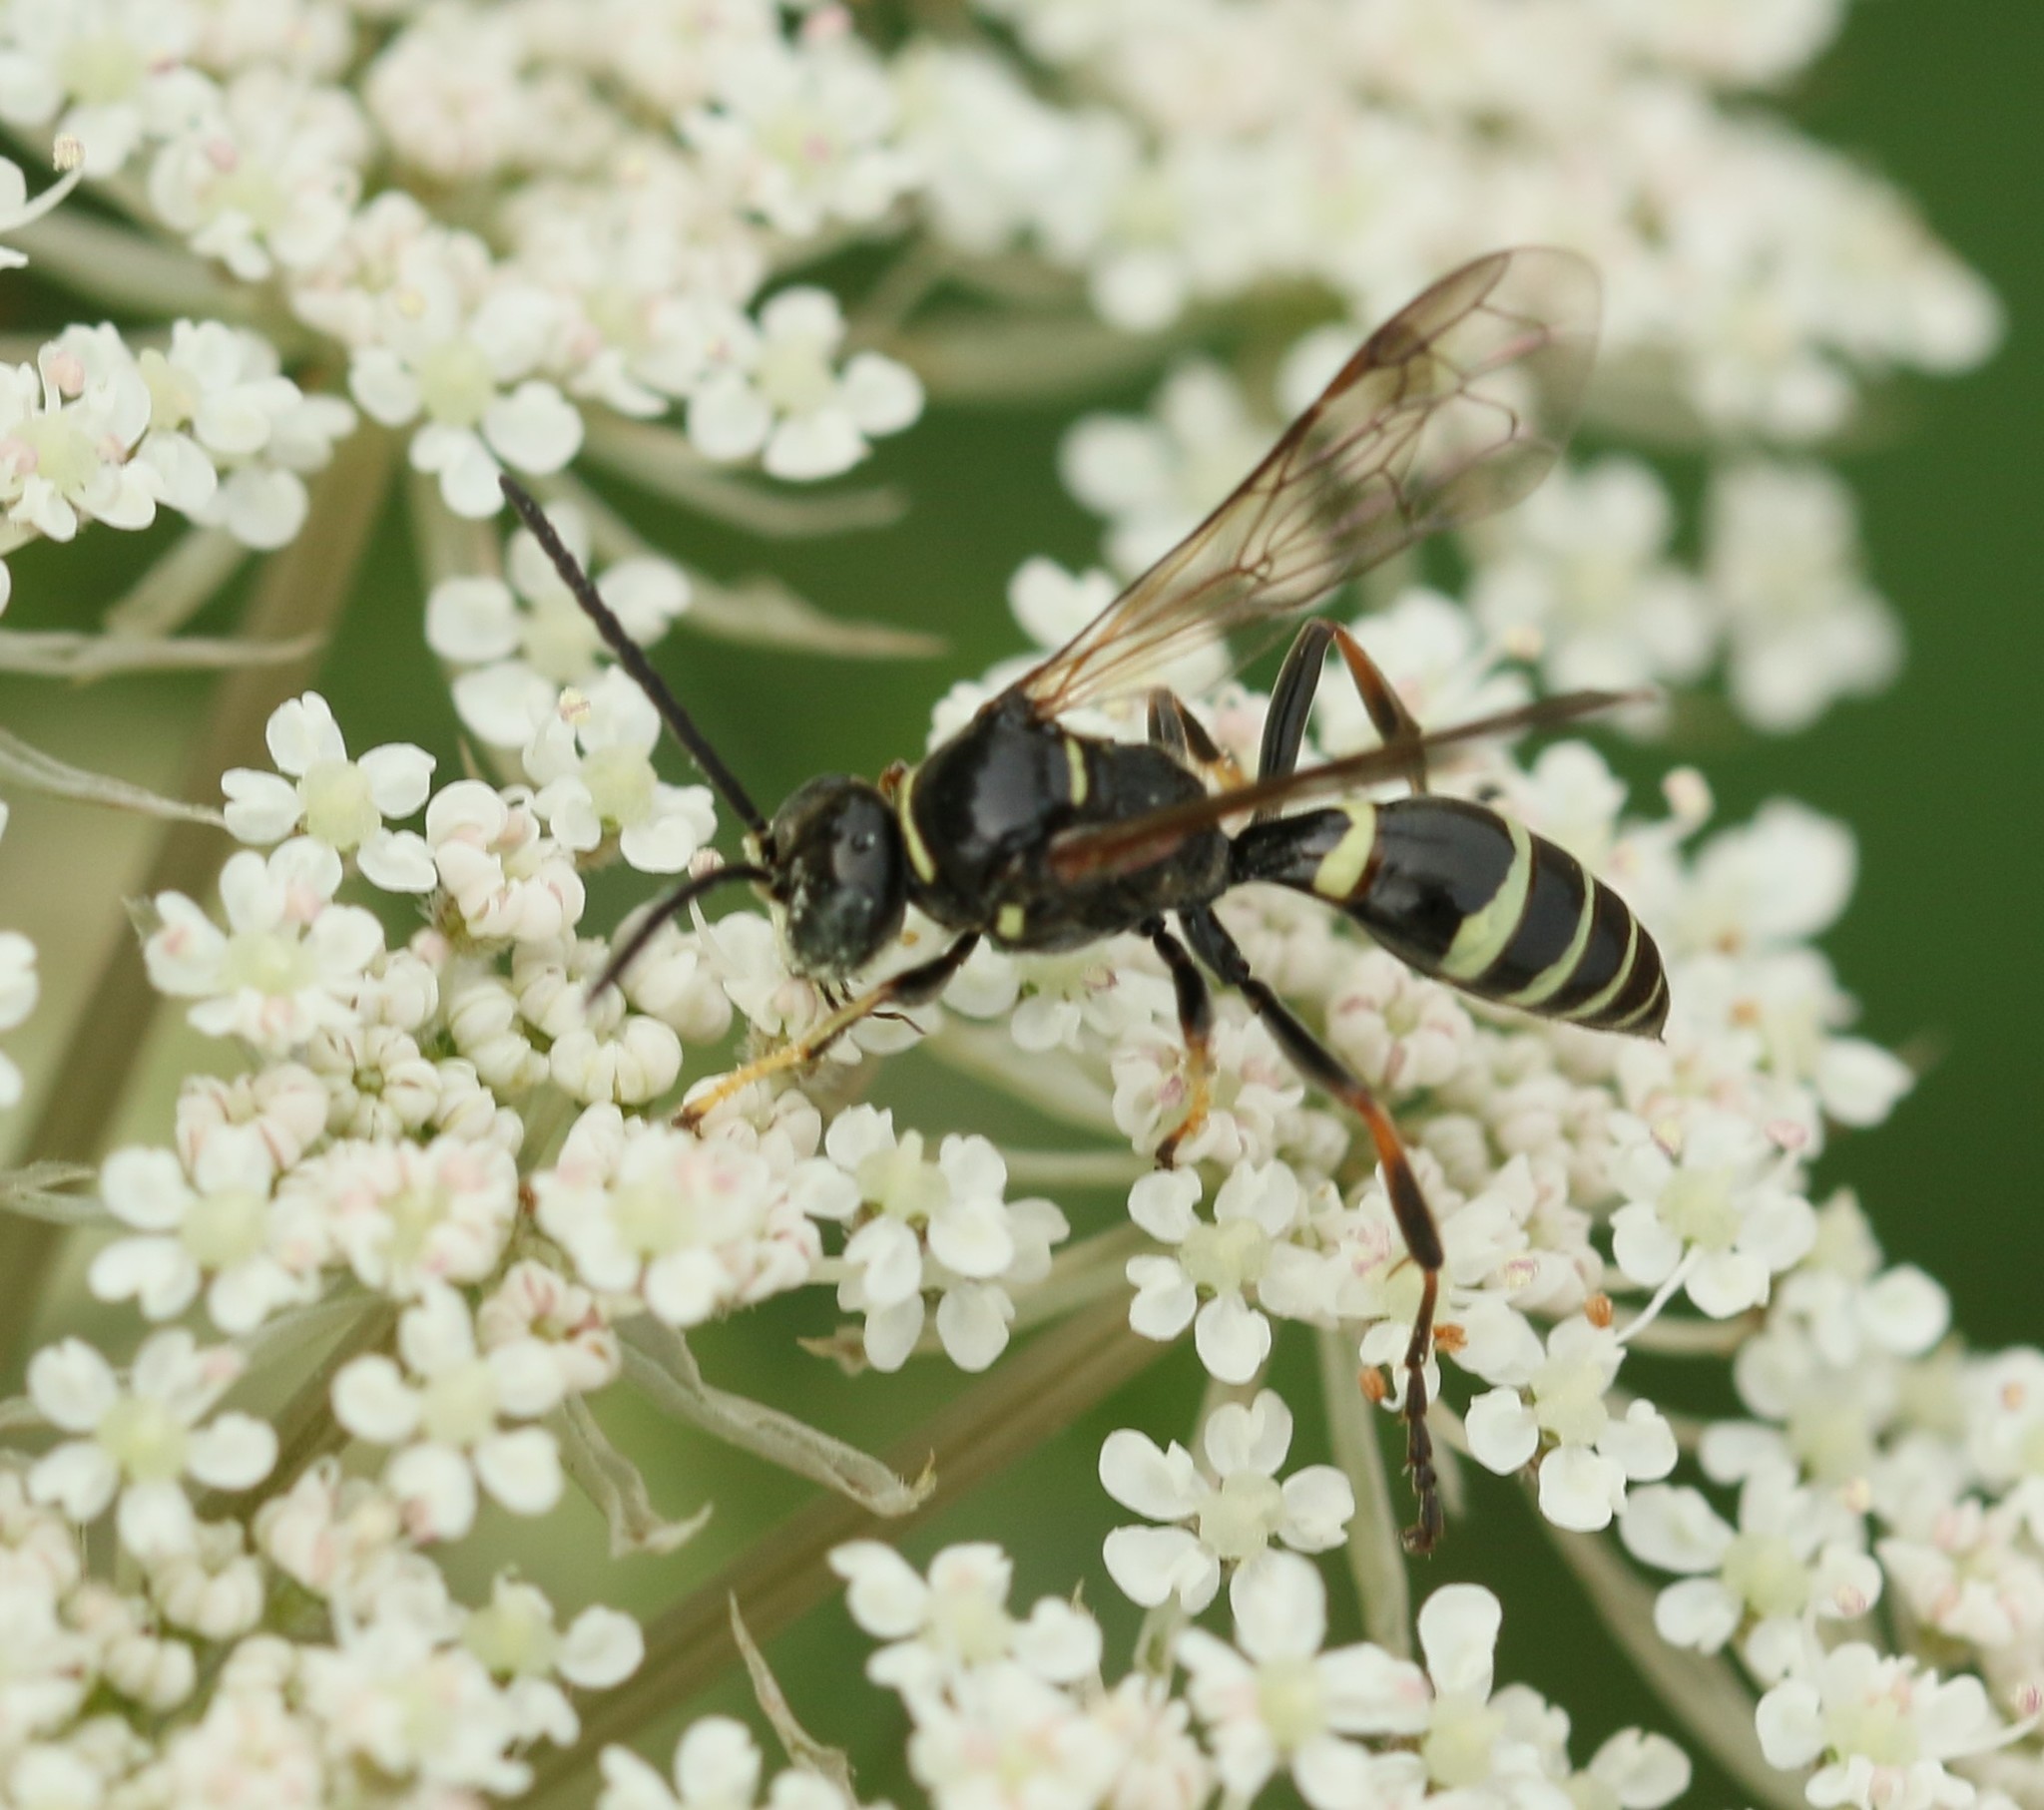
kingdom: Animalia
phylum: Arthropoda
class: Insecta
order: Hymenoptera
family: Crabronidae
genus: Gorytes
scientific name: Gorytes
